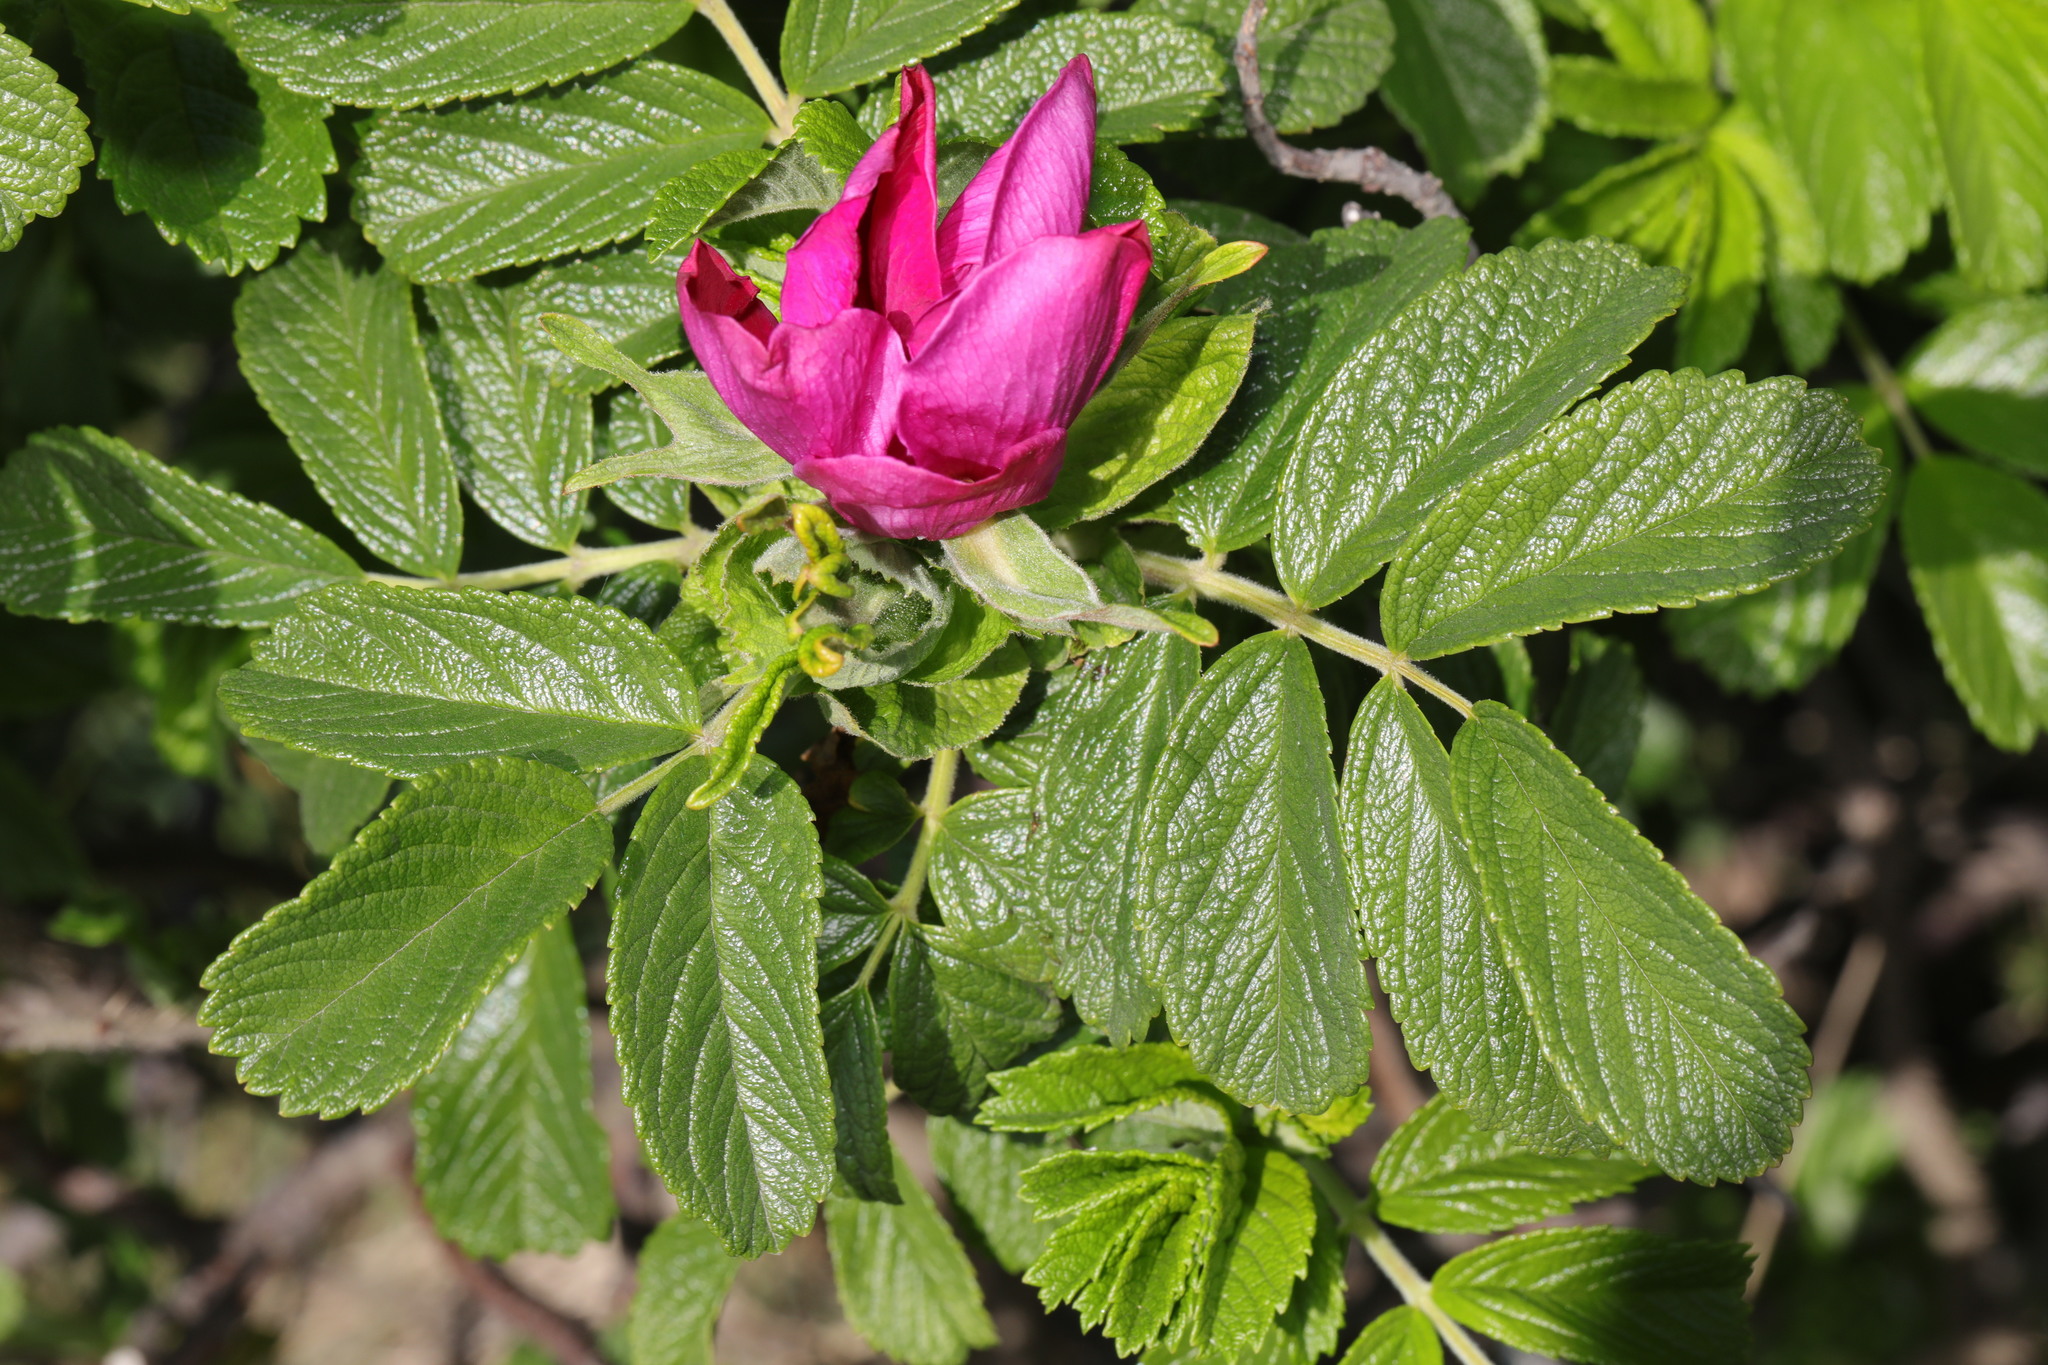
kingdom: Plantae
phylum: Tracheophyta
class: Magnoliopsida
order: Rosales
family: Rosaceae
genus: Rosa
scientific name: Rosa rugosa
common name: Japanese rose
